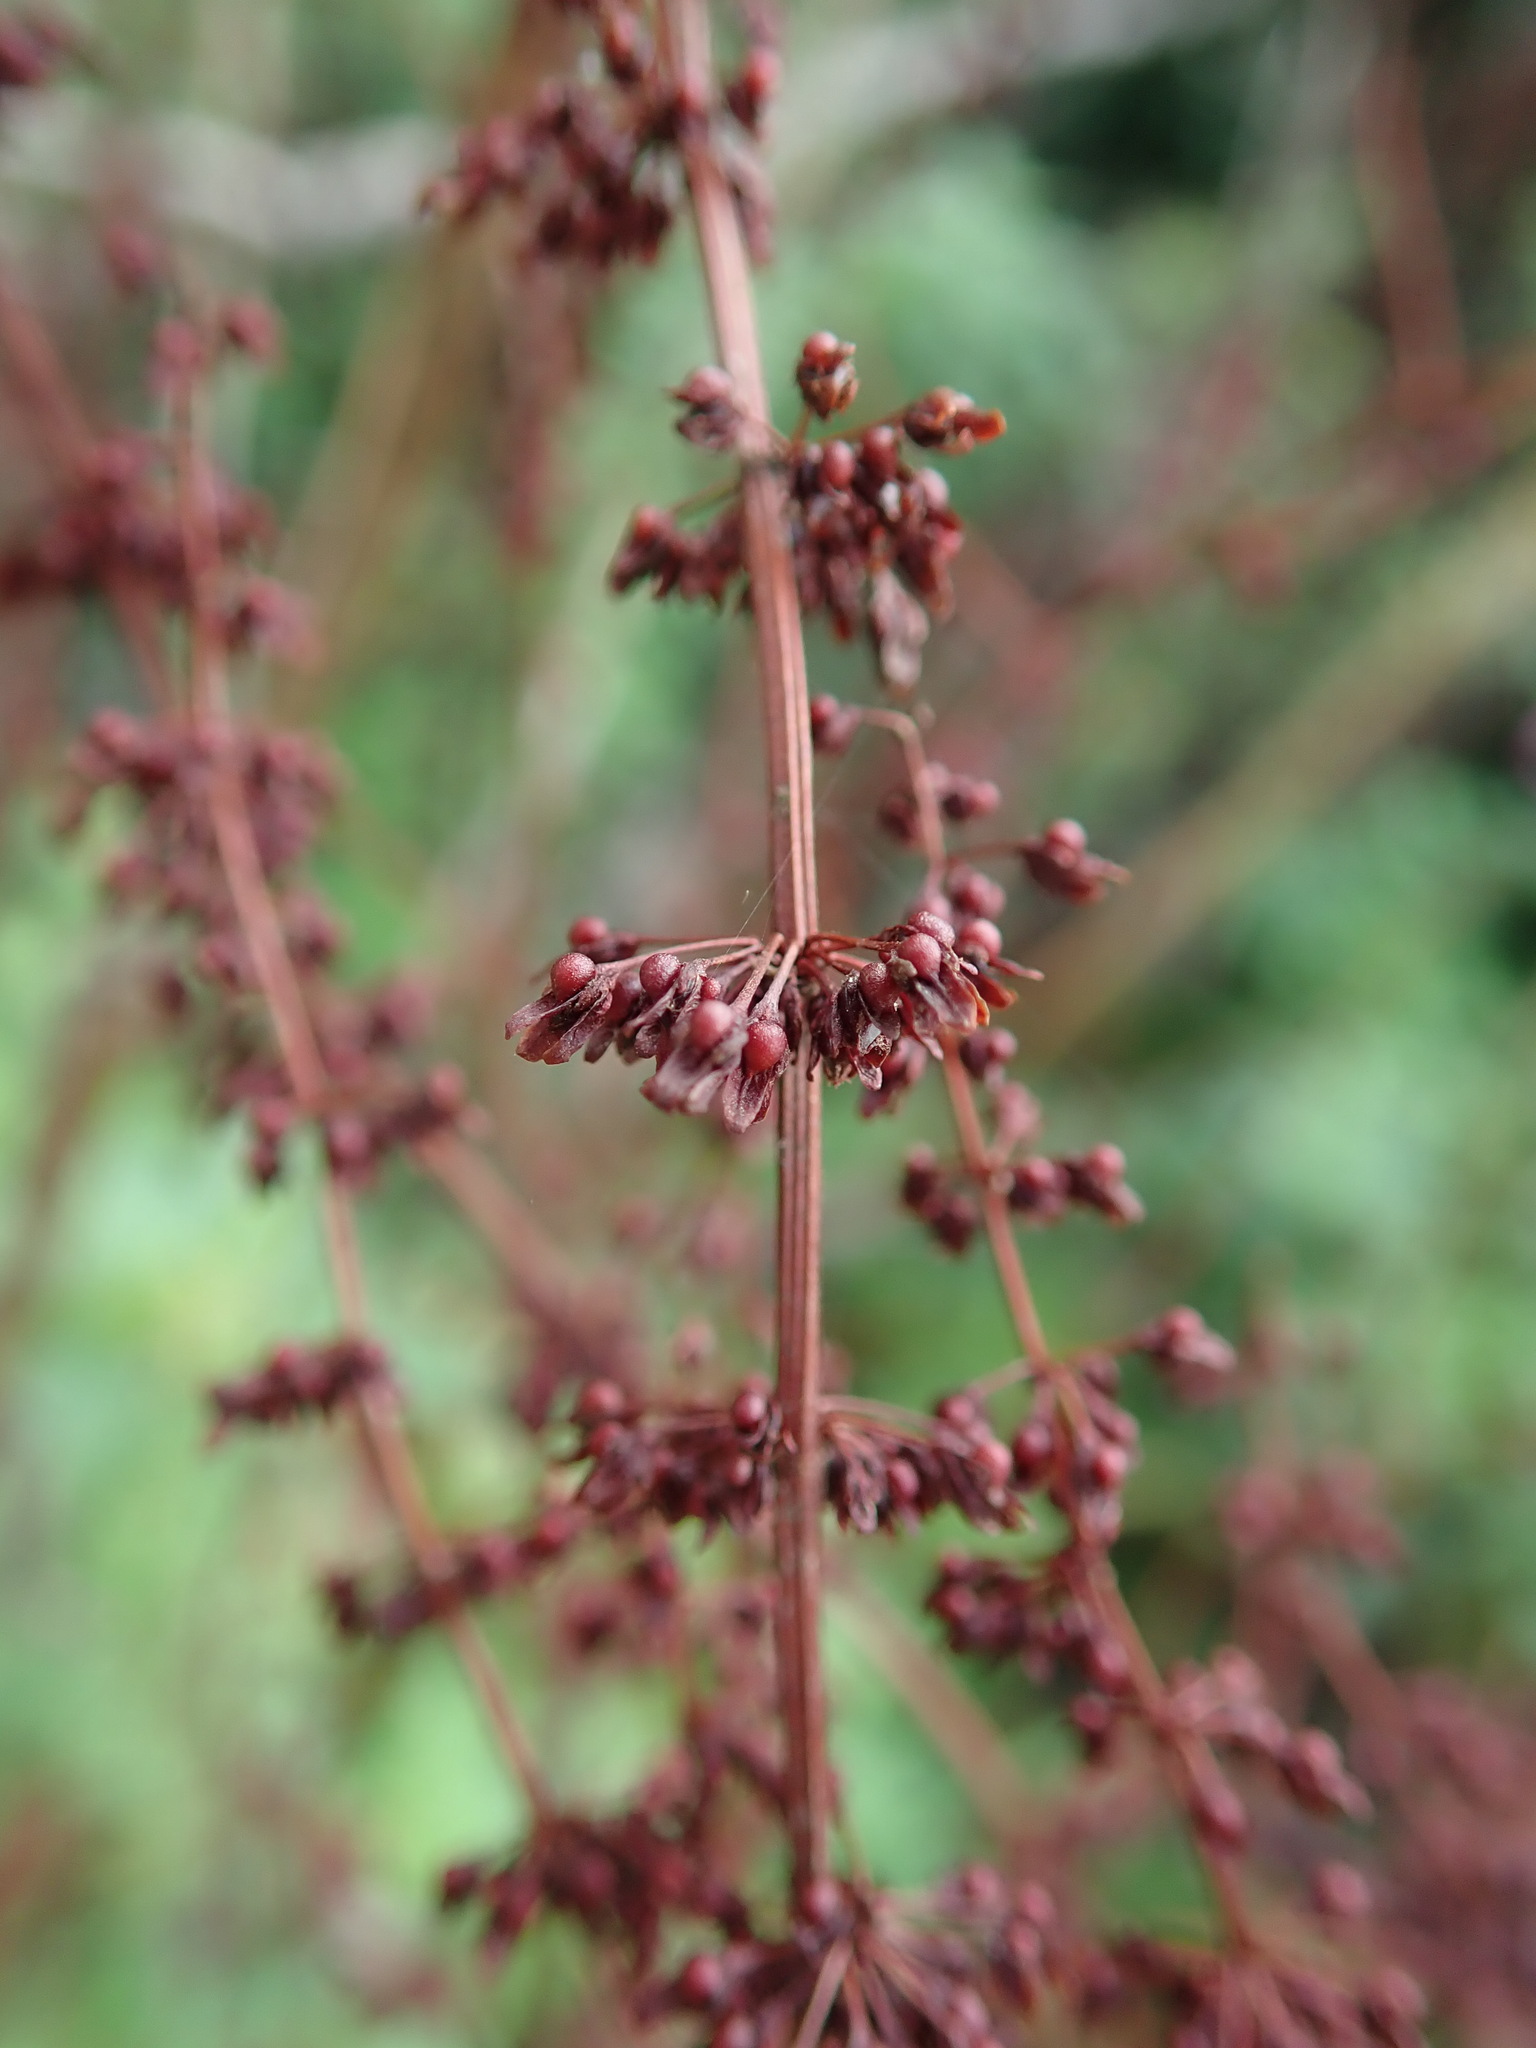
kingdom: Plantae
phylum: Tracheophyta
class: Magnoliopsida
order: Caryophyllales
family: Polygonaceae
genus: Rumex
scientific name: Rumex sanguineus
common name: Wood dock
